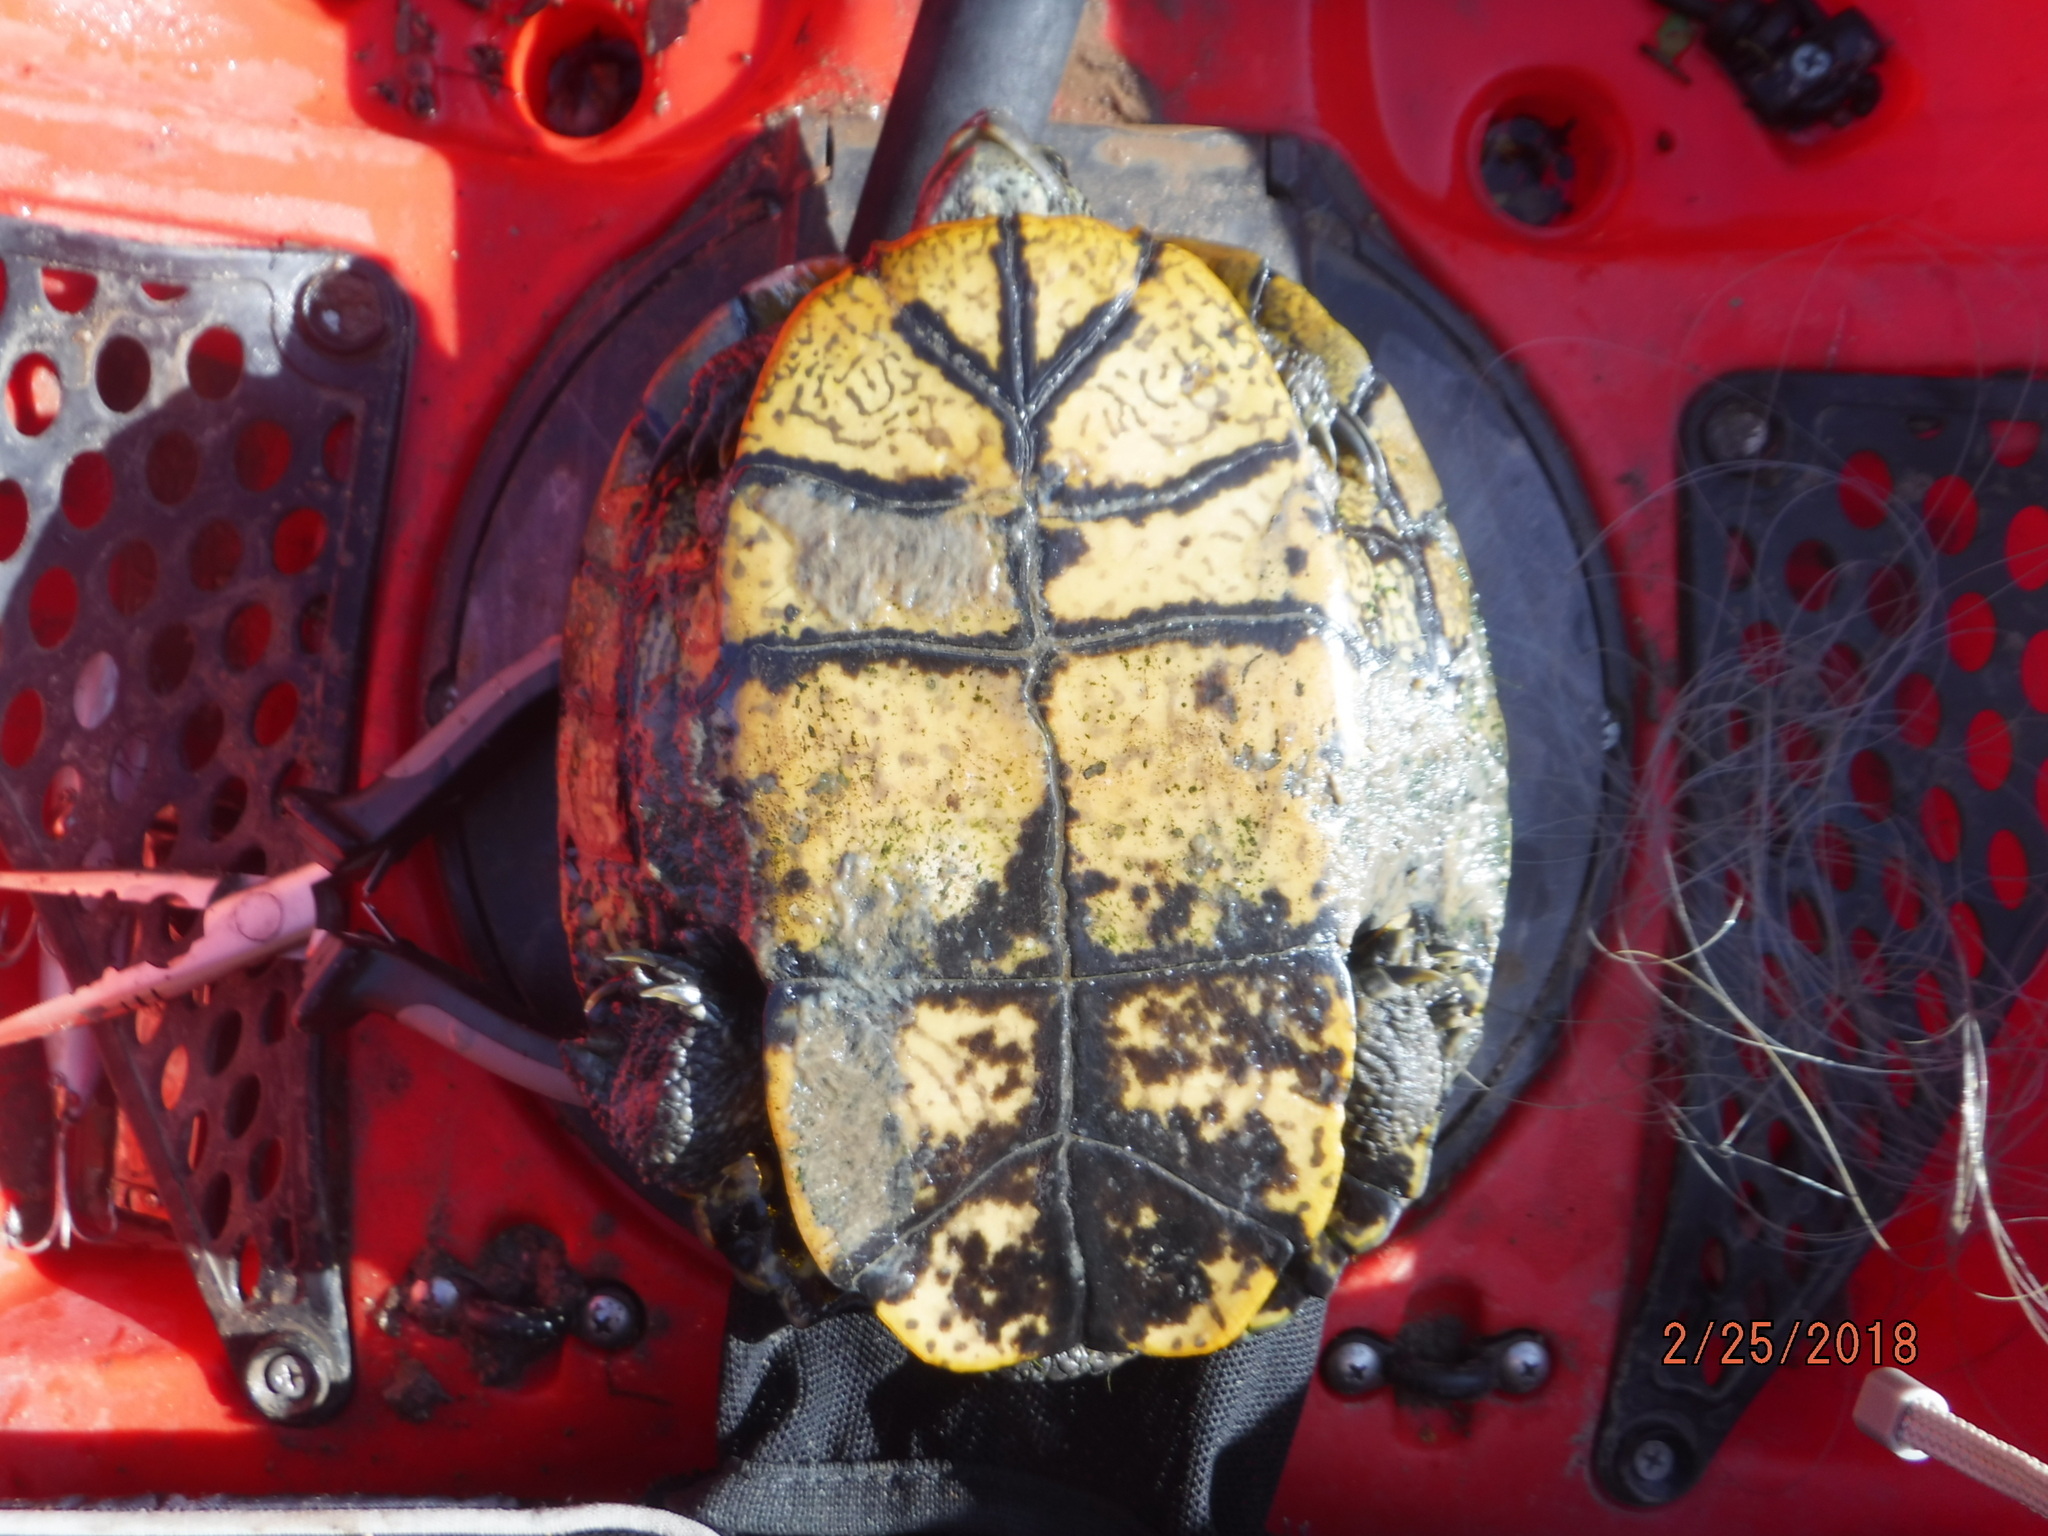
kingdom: Animalia
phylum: Chordata
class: Testudines
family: Emydidae
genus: Trachemys
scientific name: Trachemys scripta
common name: Slider
